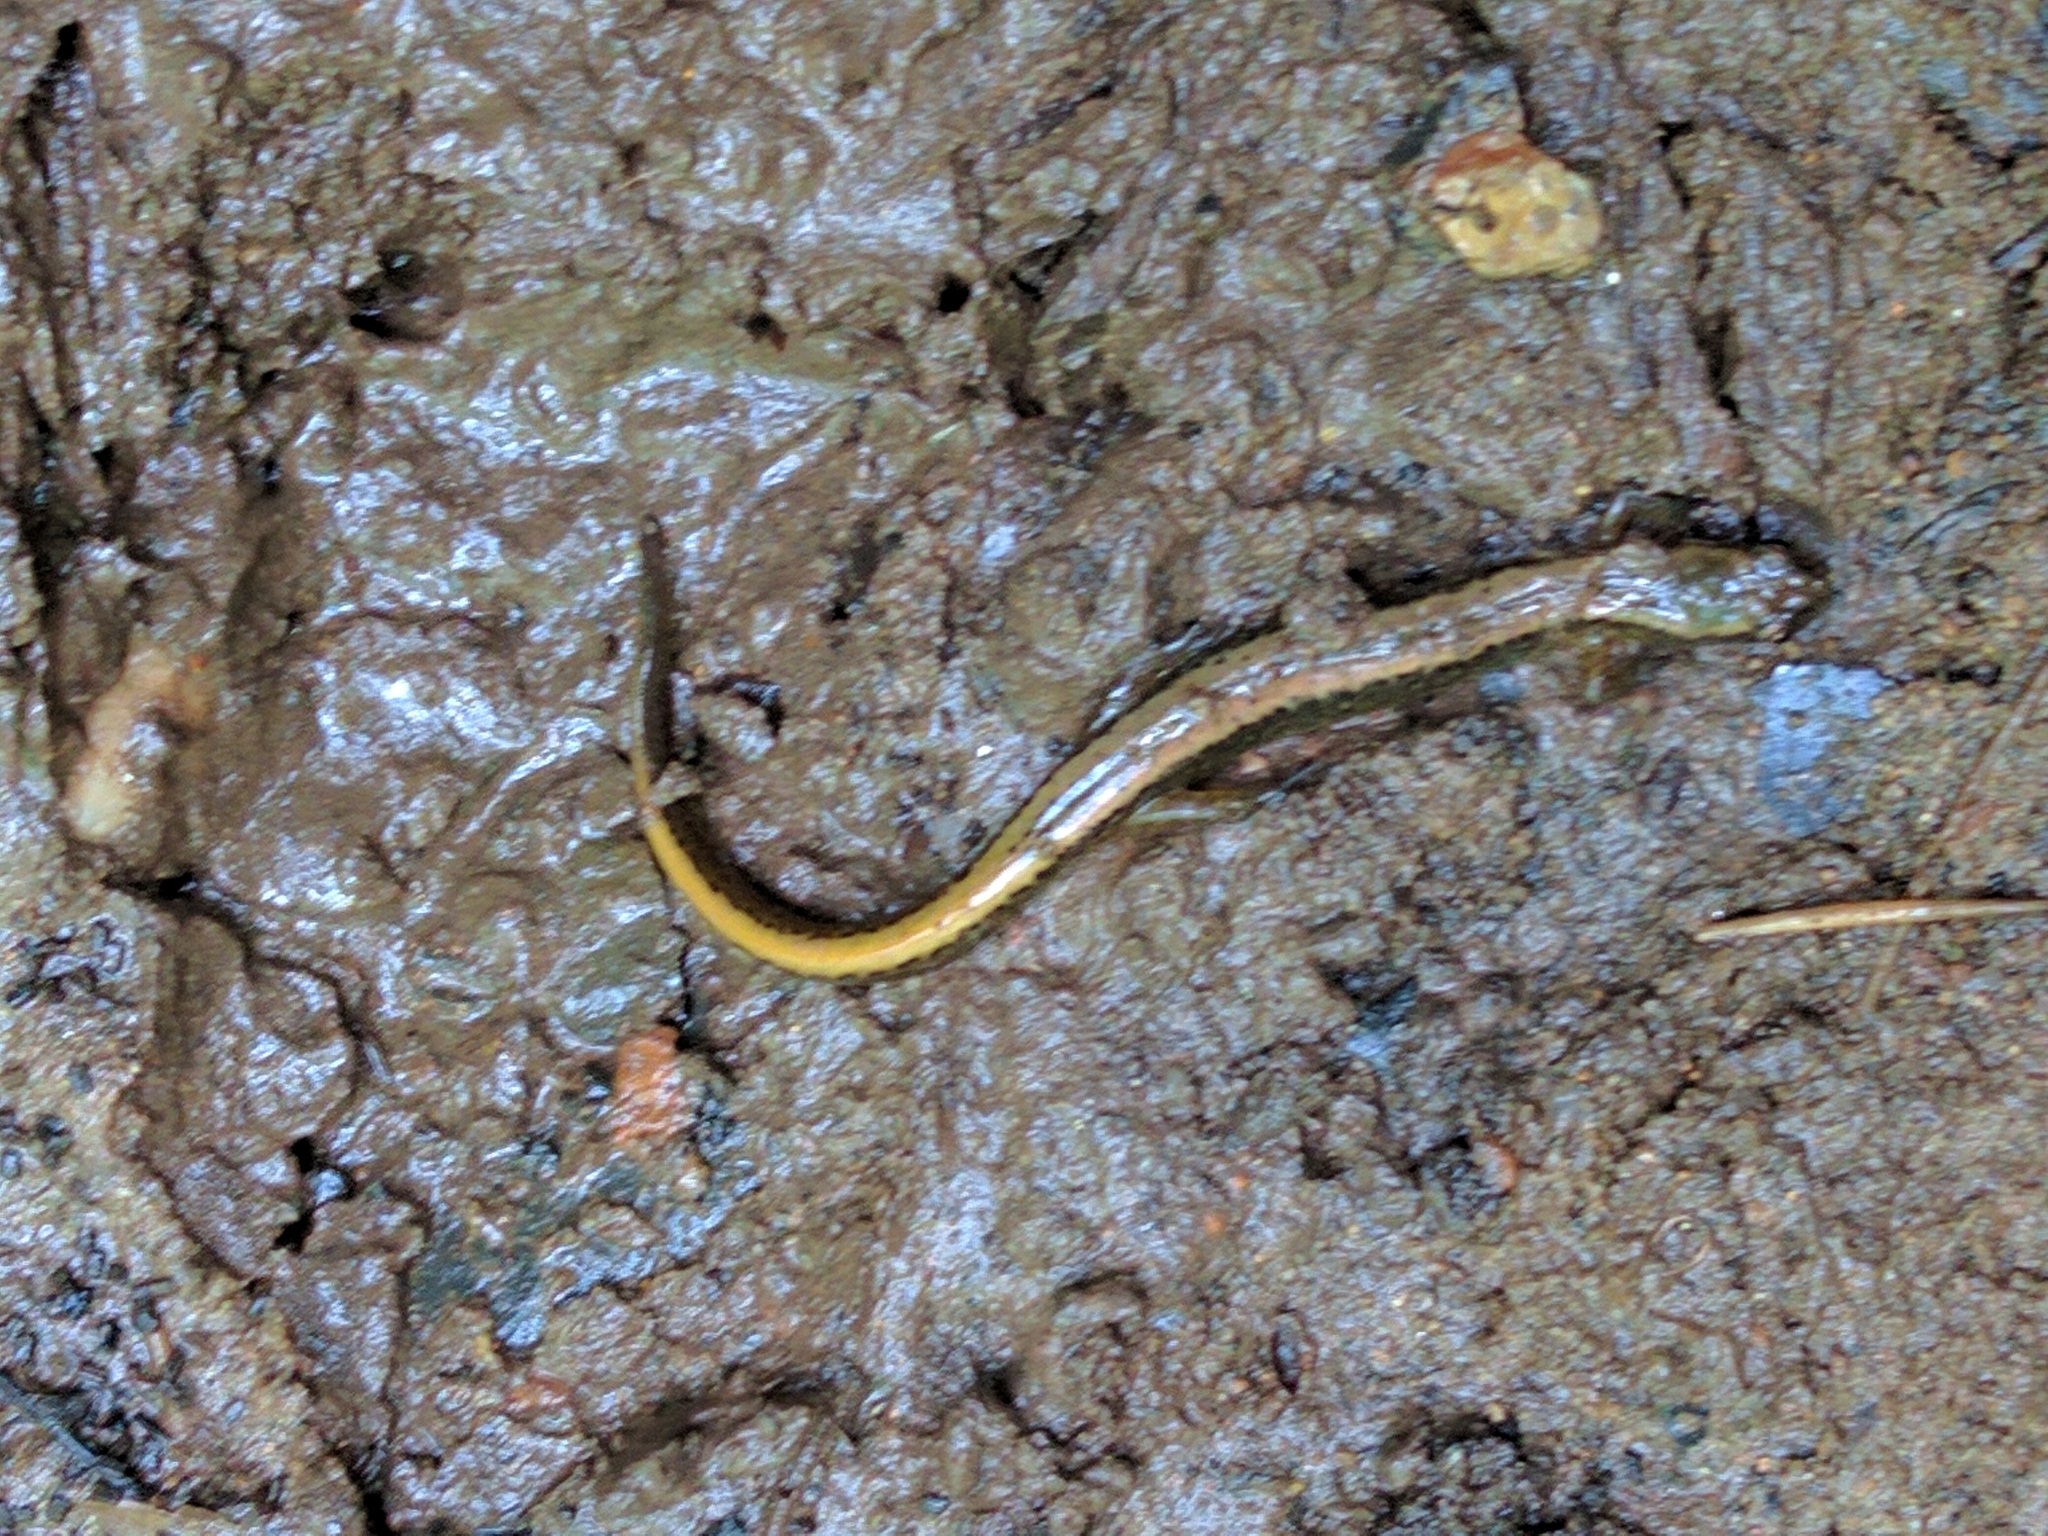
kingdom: Animalia
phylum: Chordata
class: Amphibia
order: Caudata
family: Plethodontidae
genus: Eurycea
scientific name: Eurycea bislineata
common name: Northern two-lined salamander
